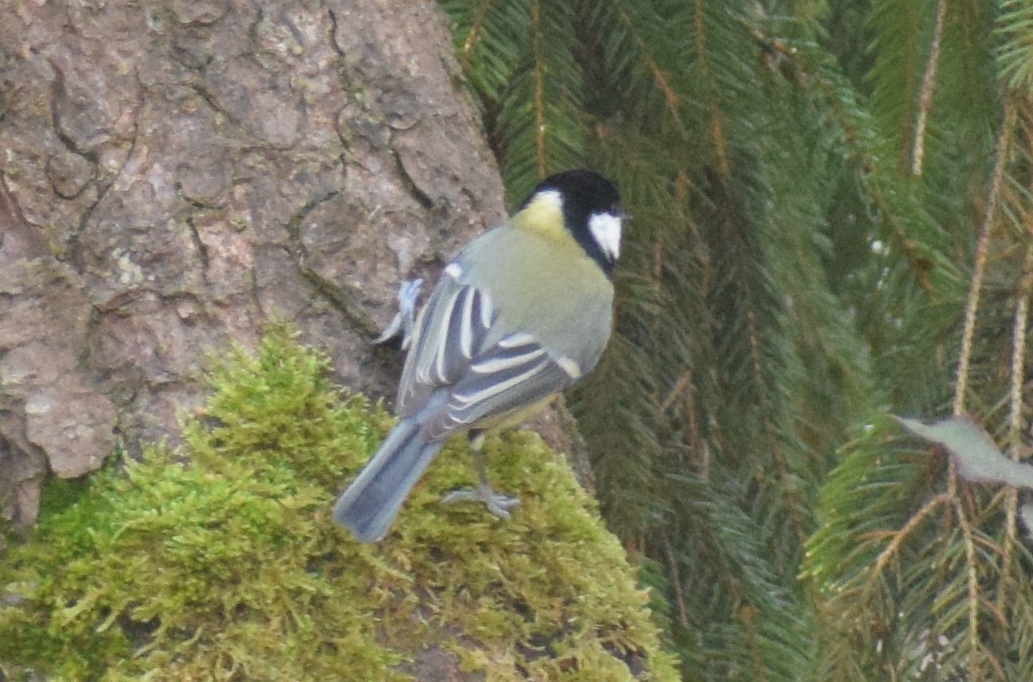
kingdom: Animalia
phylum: Chordata
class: Aves
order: Passeriformes
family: Paridae
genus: Parus
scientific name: Parus major
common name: Great tit
